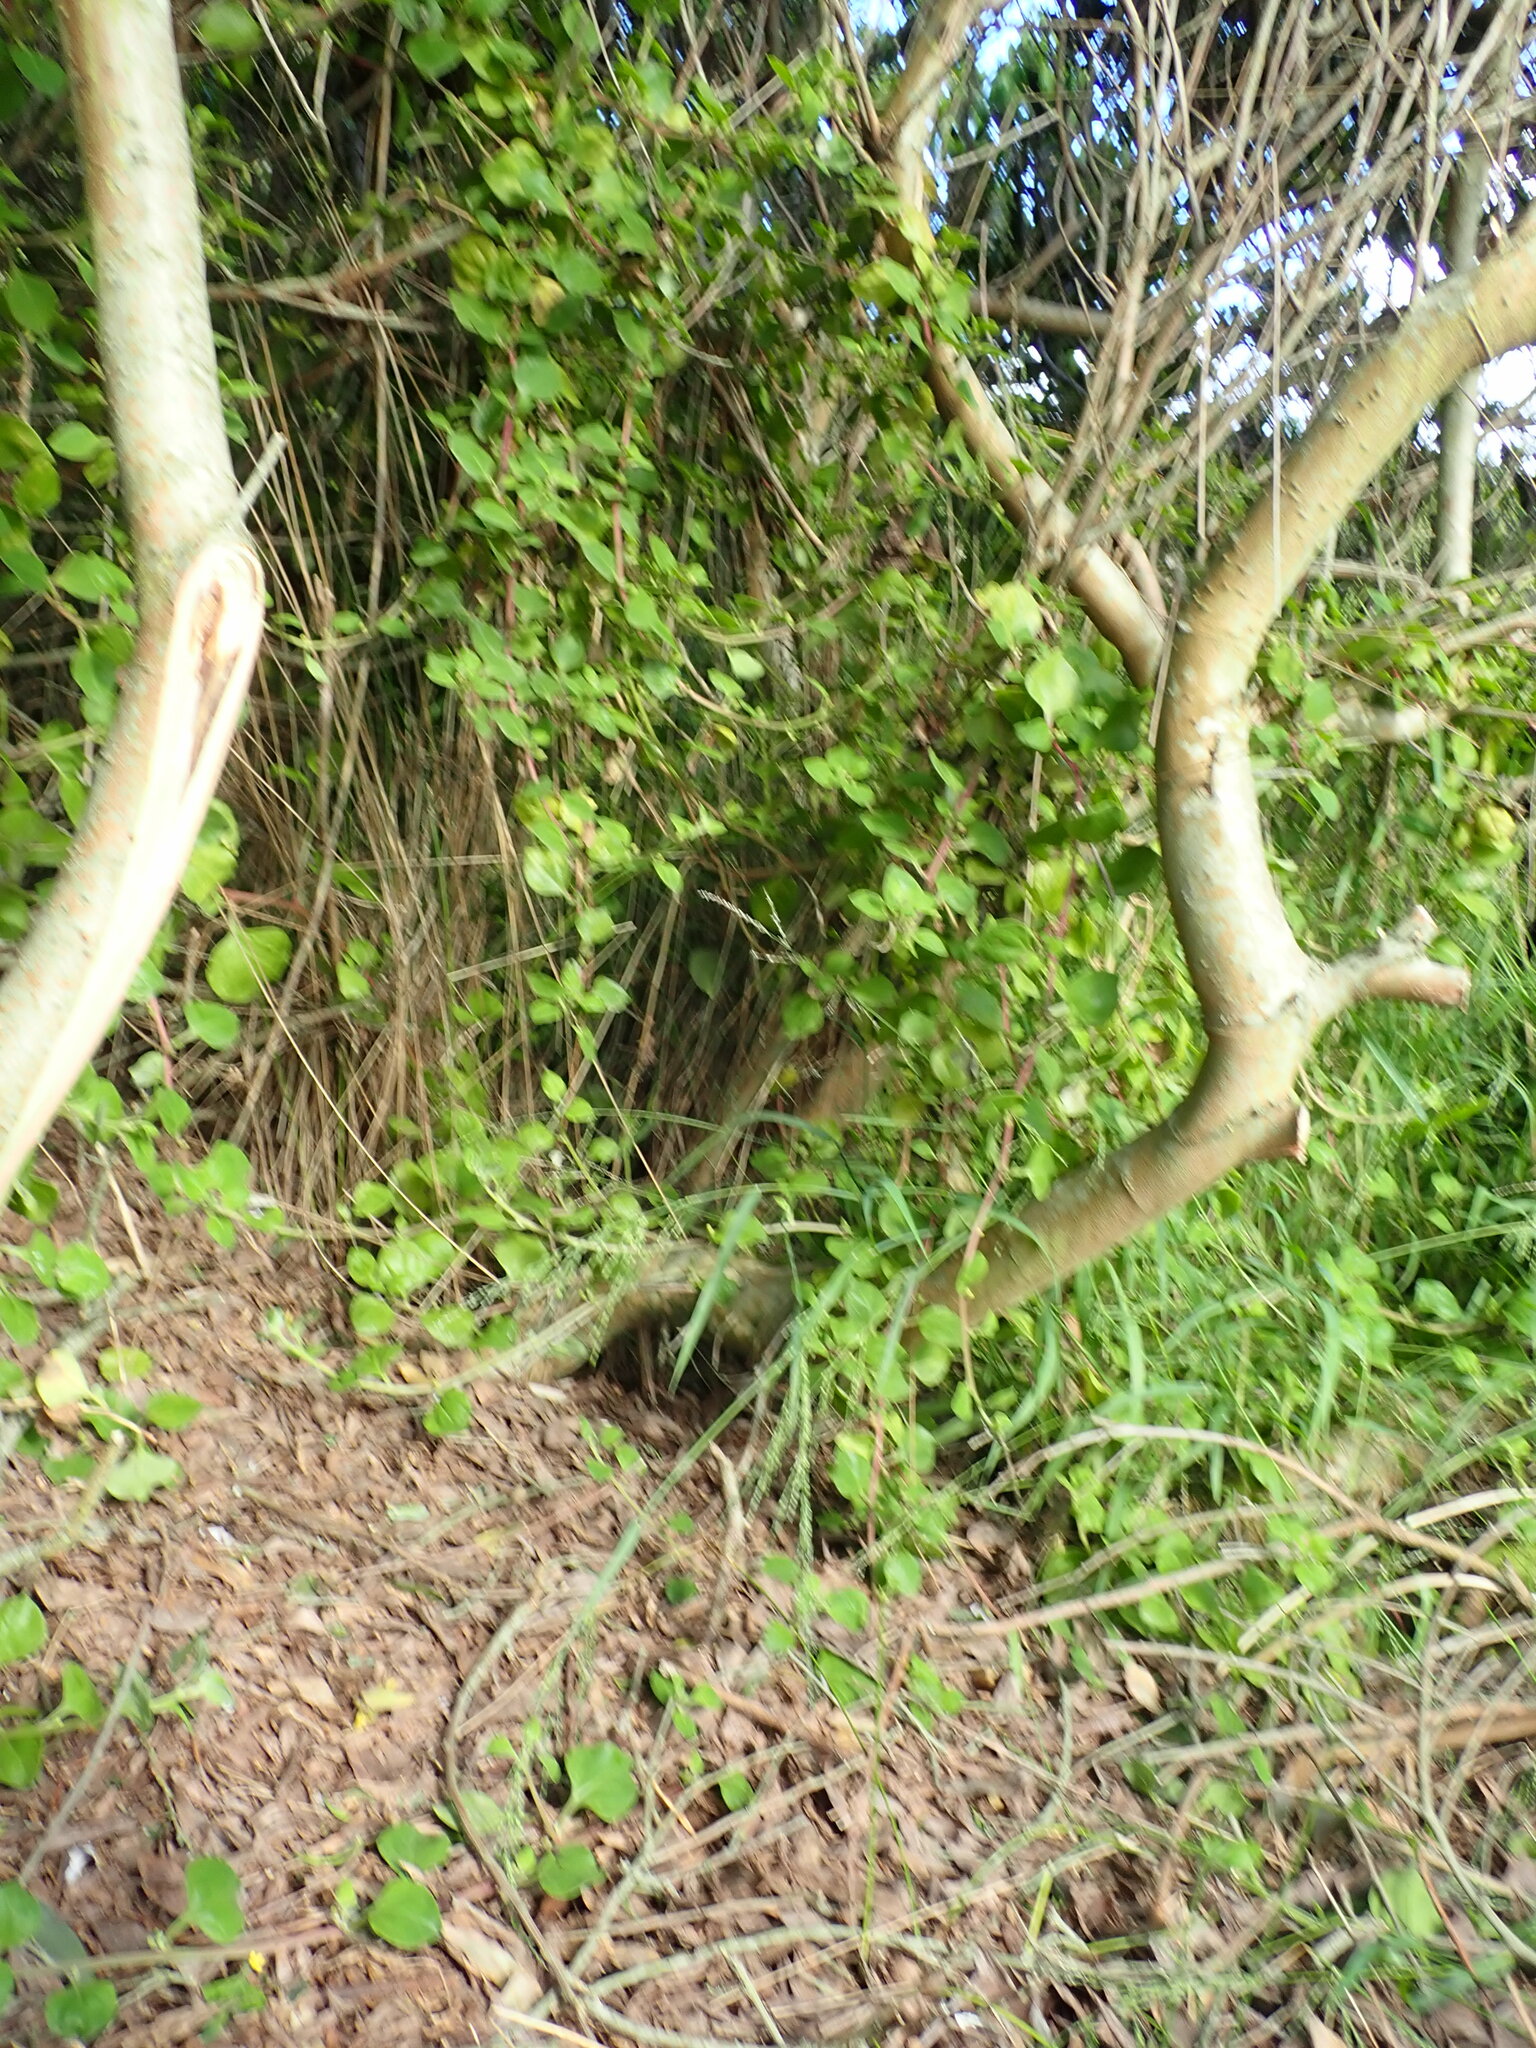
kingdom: Plantae
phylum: Tracheophyta
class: Magnoliopsida
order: Caryophyllales
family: Aizoaceae
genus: Tetragonia
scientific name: Tetragonia implexicoma
